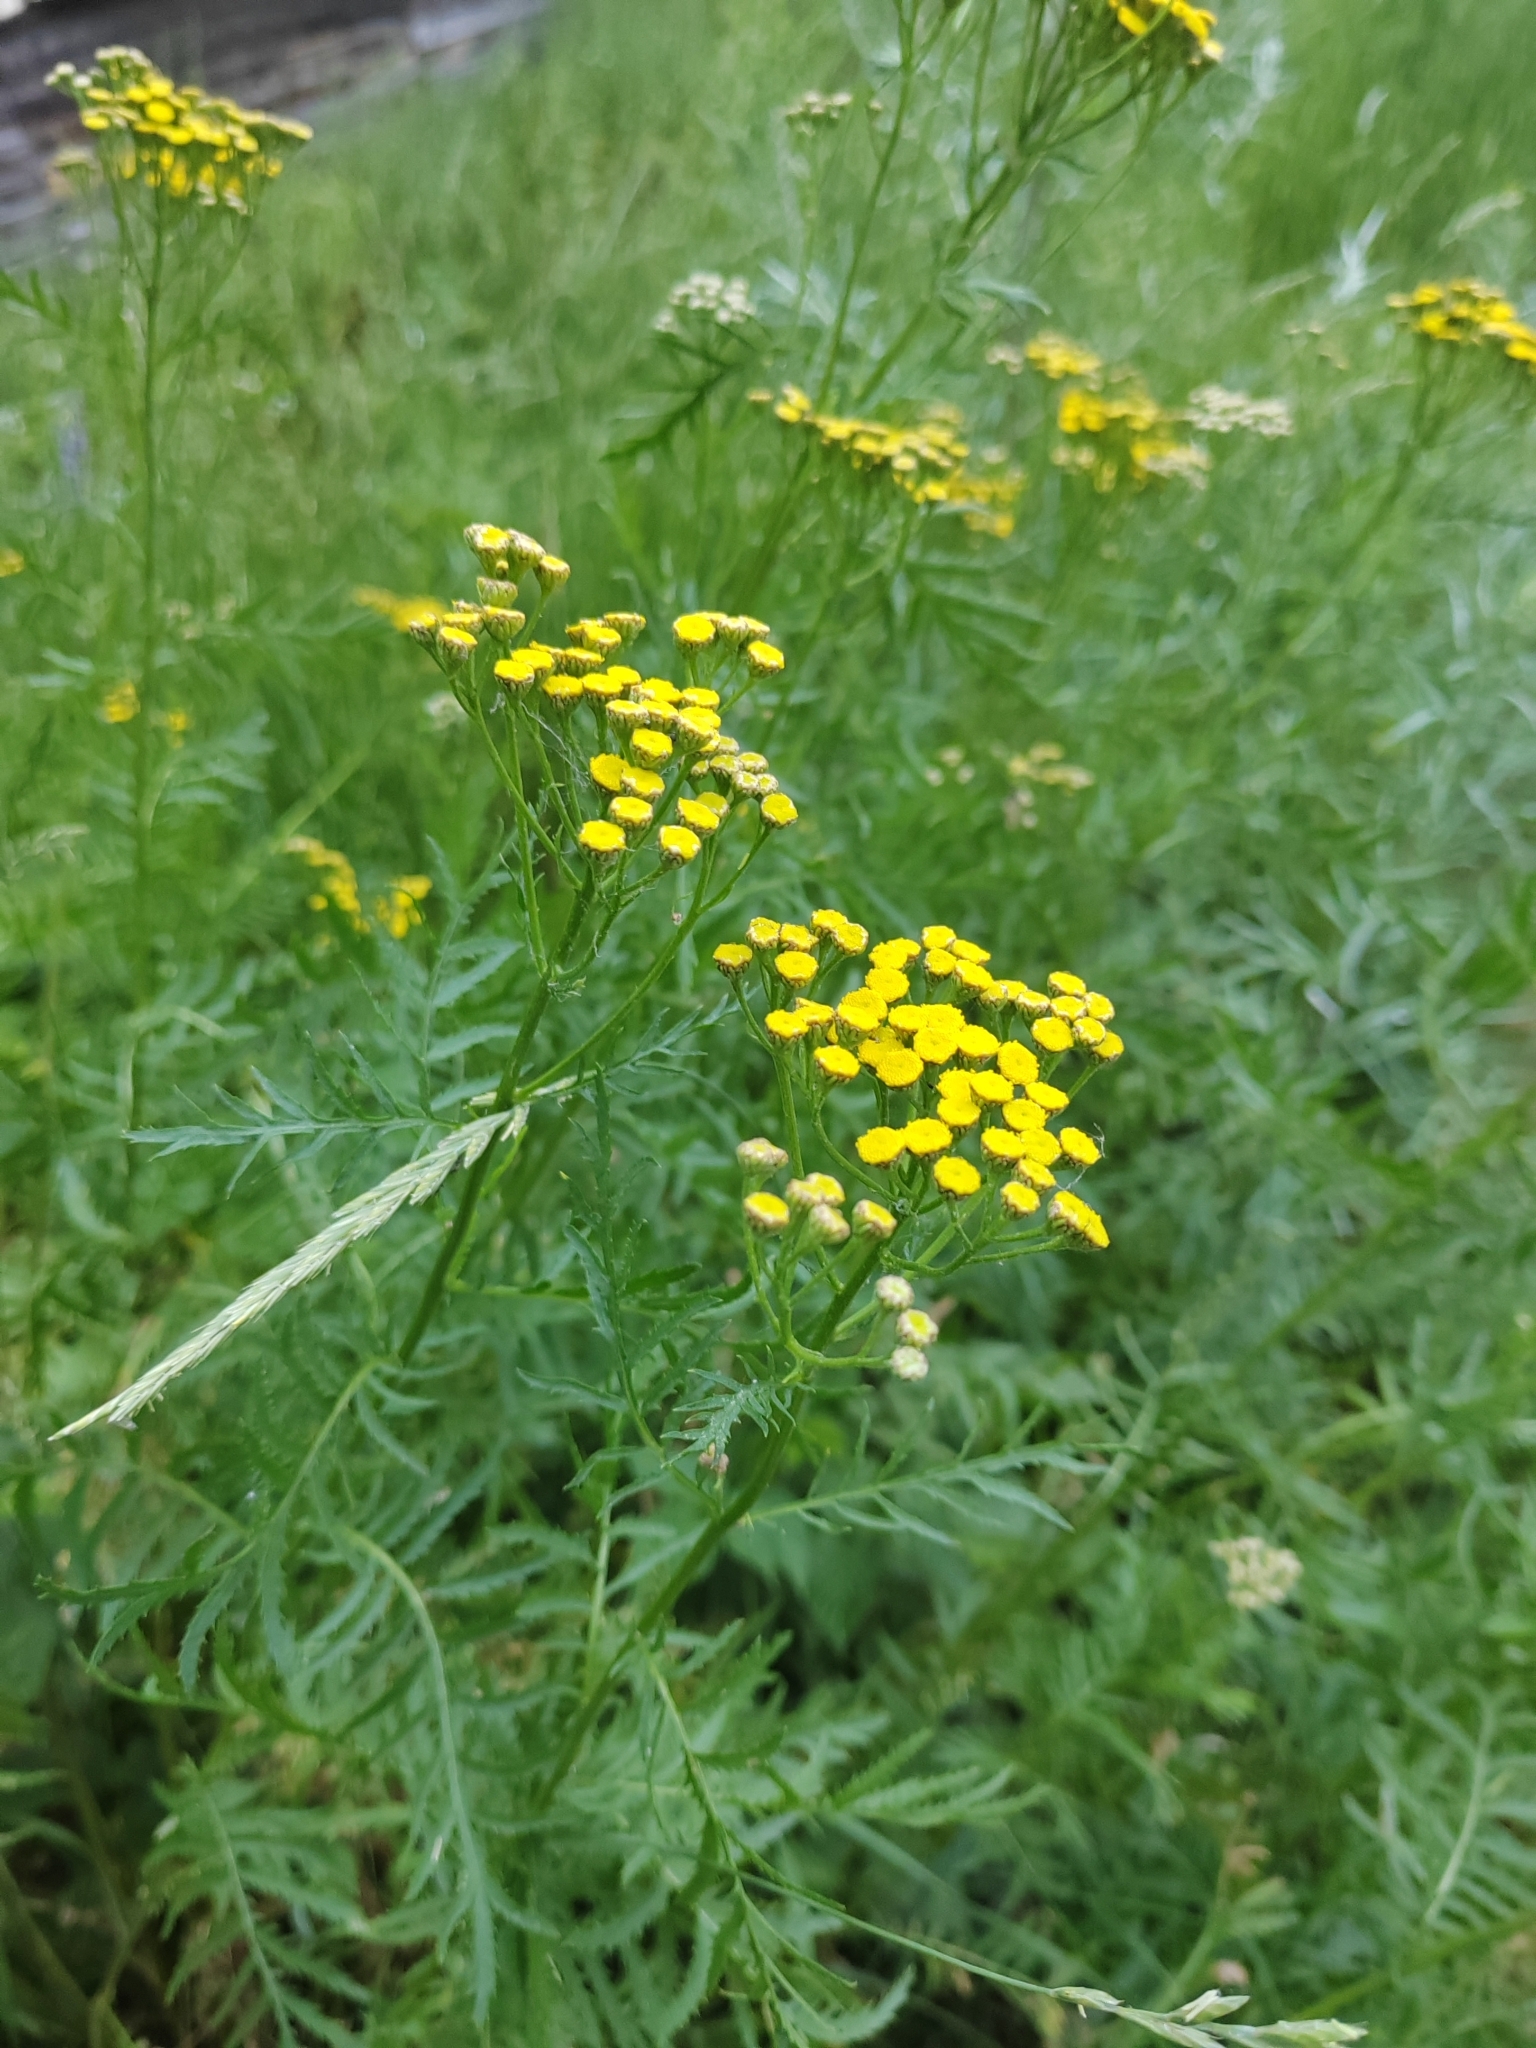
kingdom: Plantae
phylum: Tracheophyta
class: Magnoliopsida
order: Asterales
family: Asteraceae
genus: Tanacetum
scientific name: Tanacetum vulgare
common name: Common tansy
